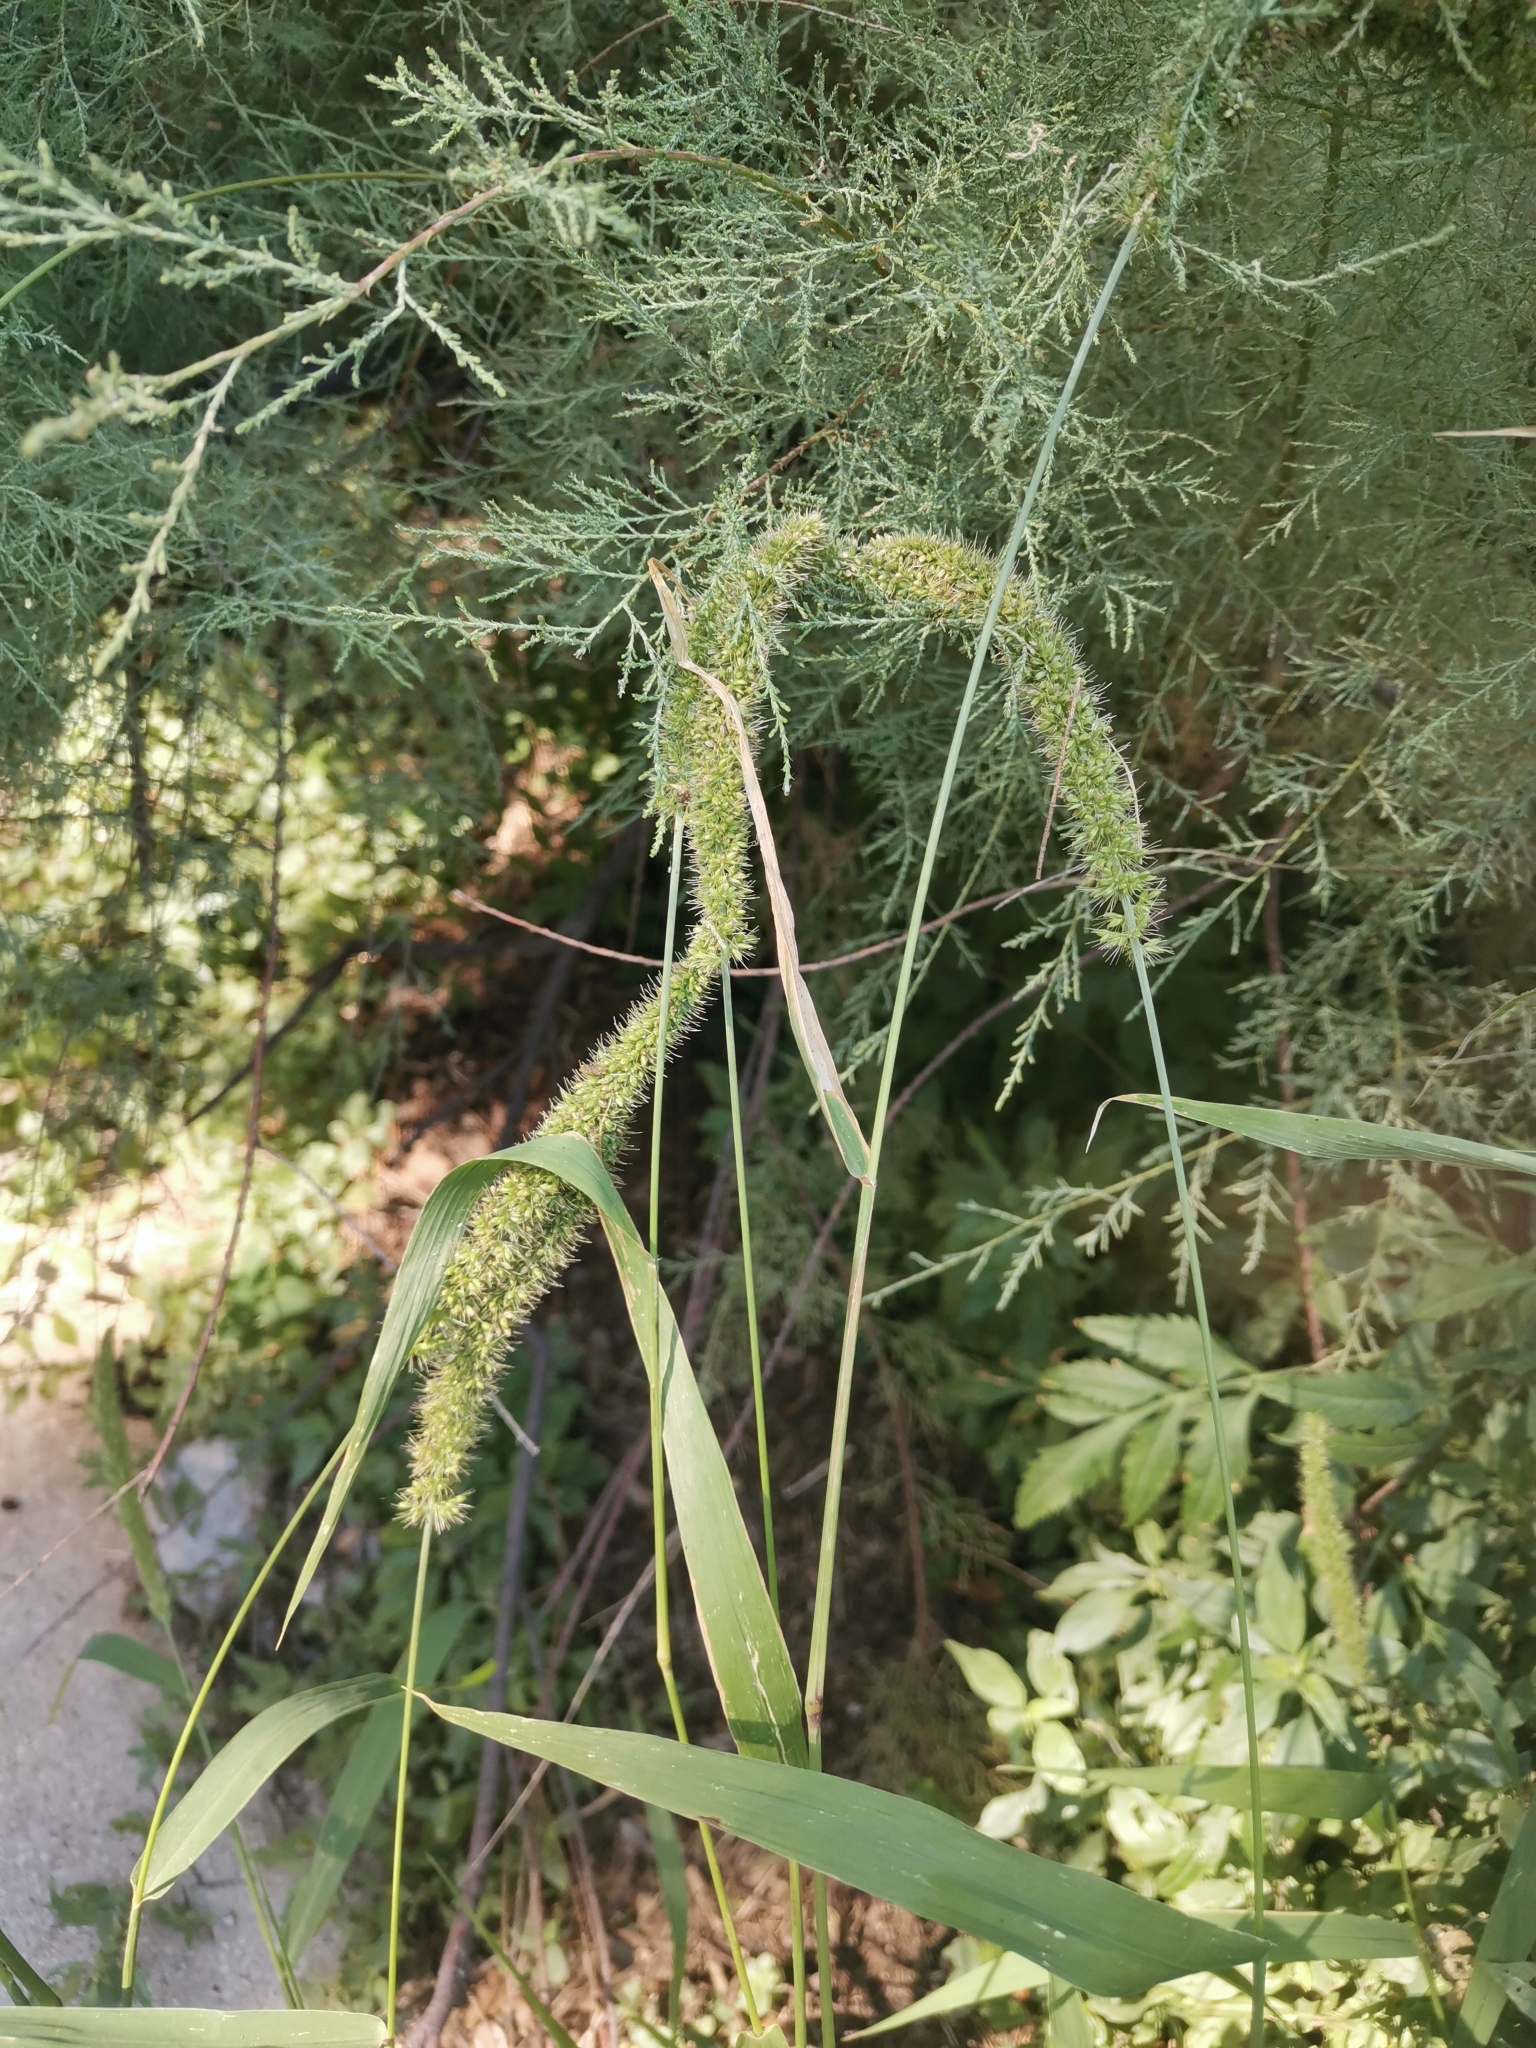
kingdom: Plantae
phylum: Tracheophyta
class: Liliopsida
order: Poales
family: Poaceae
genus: Setaria
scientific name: Setaria verticillata
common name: Hooked bristlegrass
